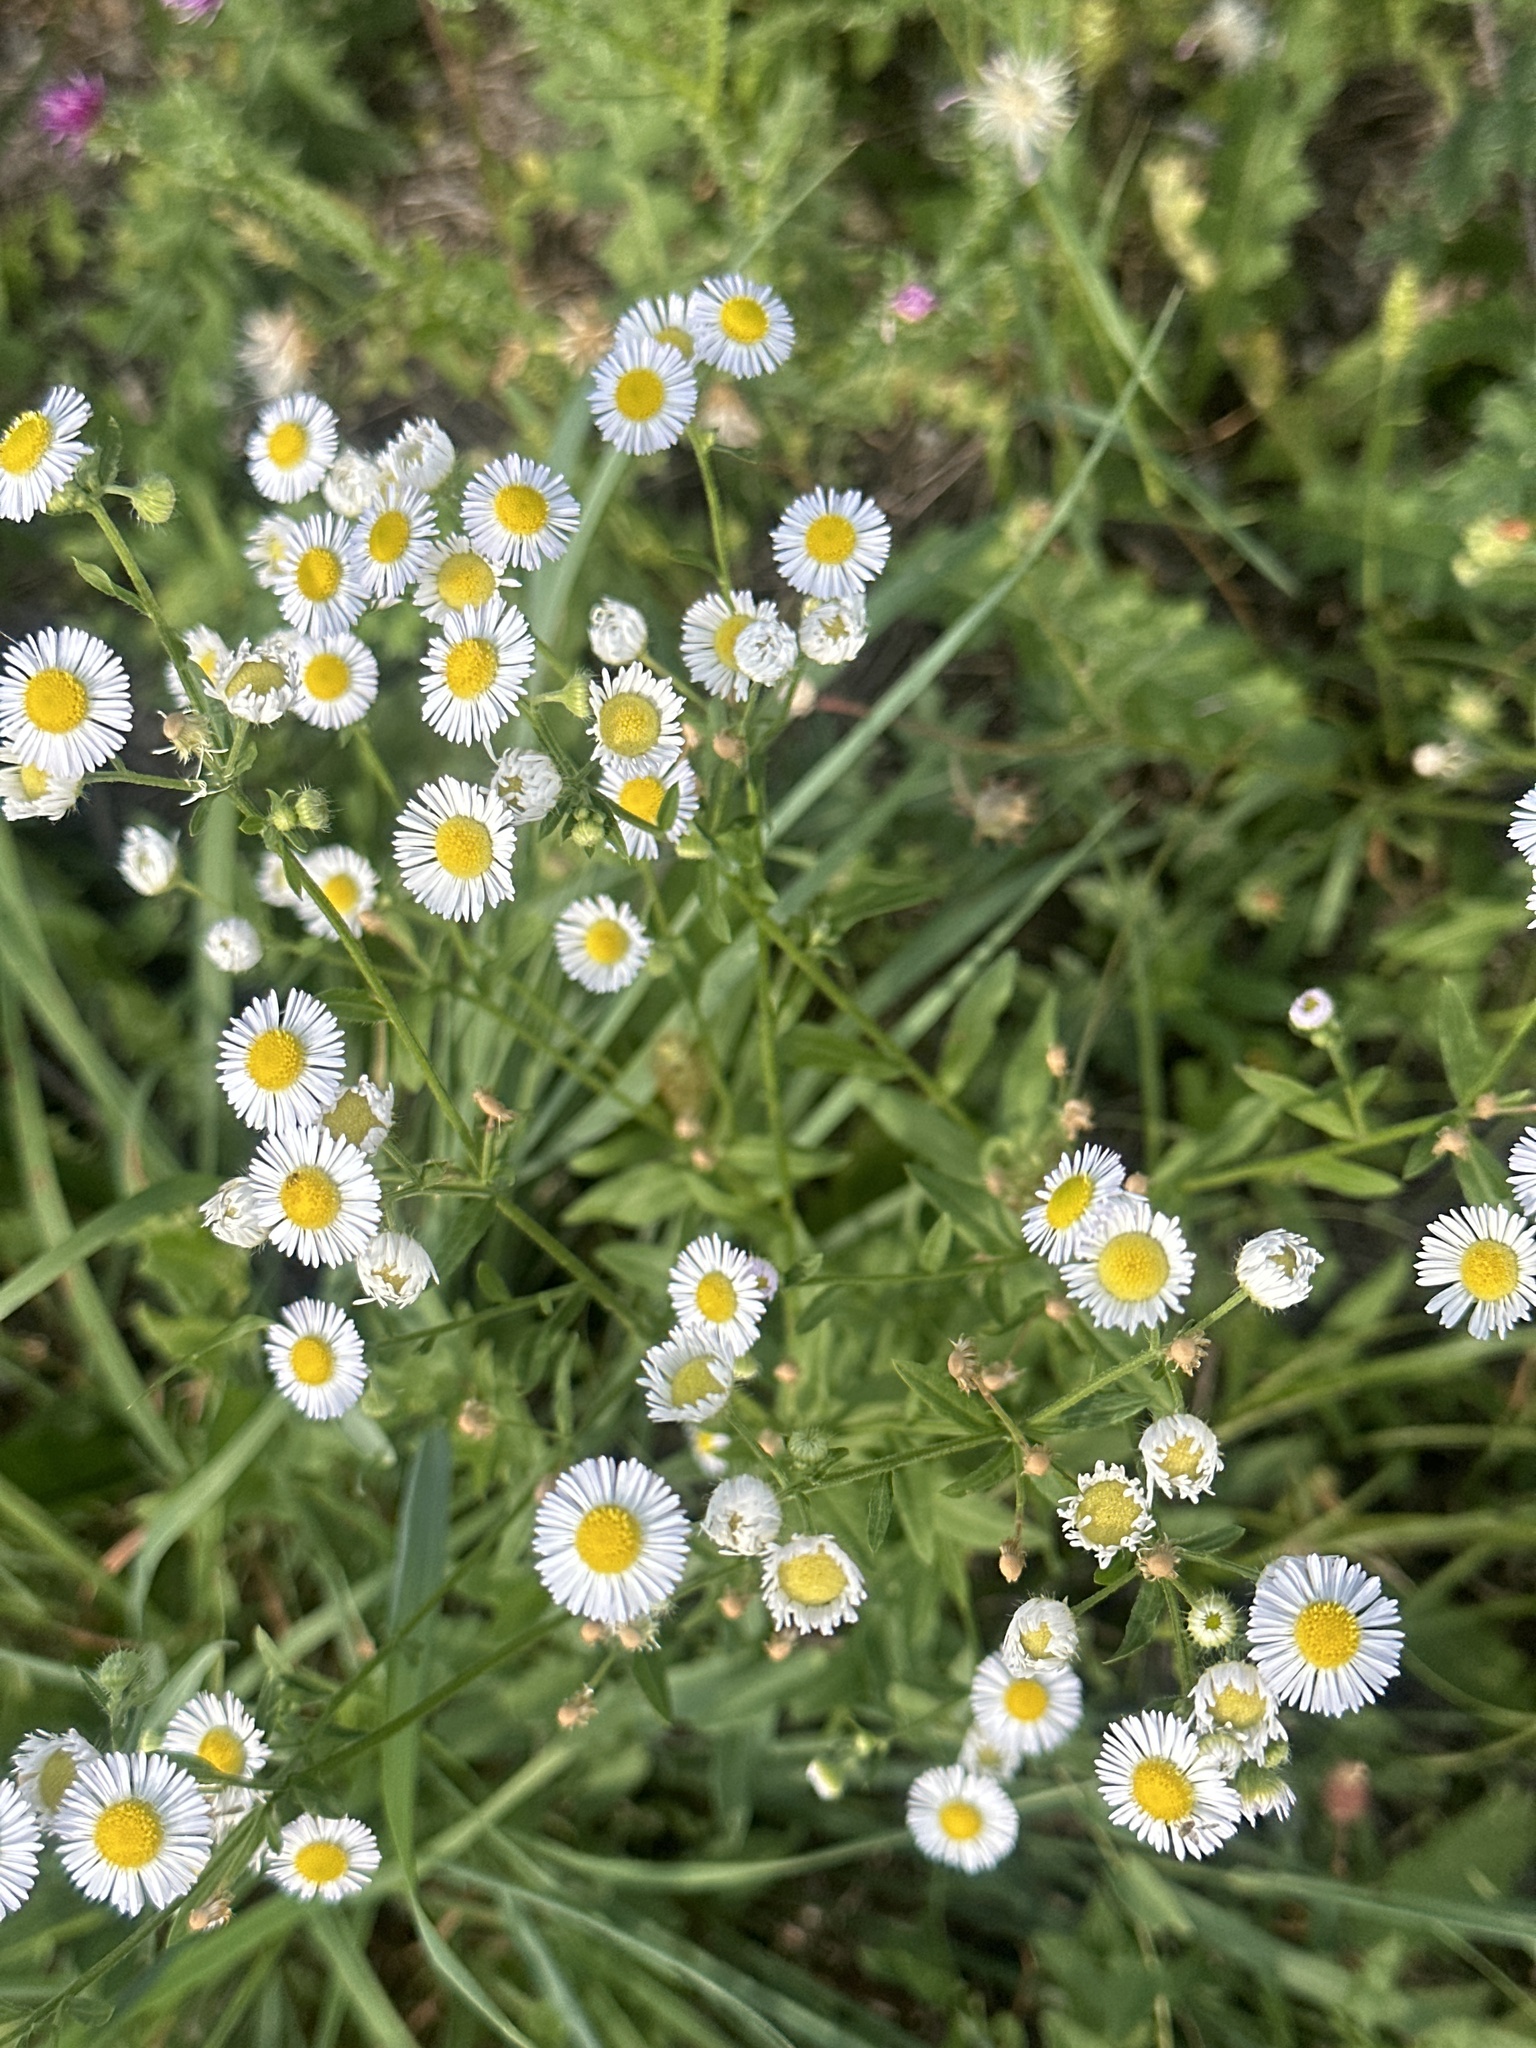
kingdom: Plantae
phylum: Tracheophyta
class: Magnoliopsida
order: Asterales
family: Asteraceae
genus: Erigeron
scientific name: Erigeron annuus
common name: Tall fleabane
